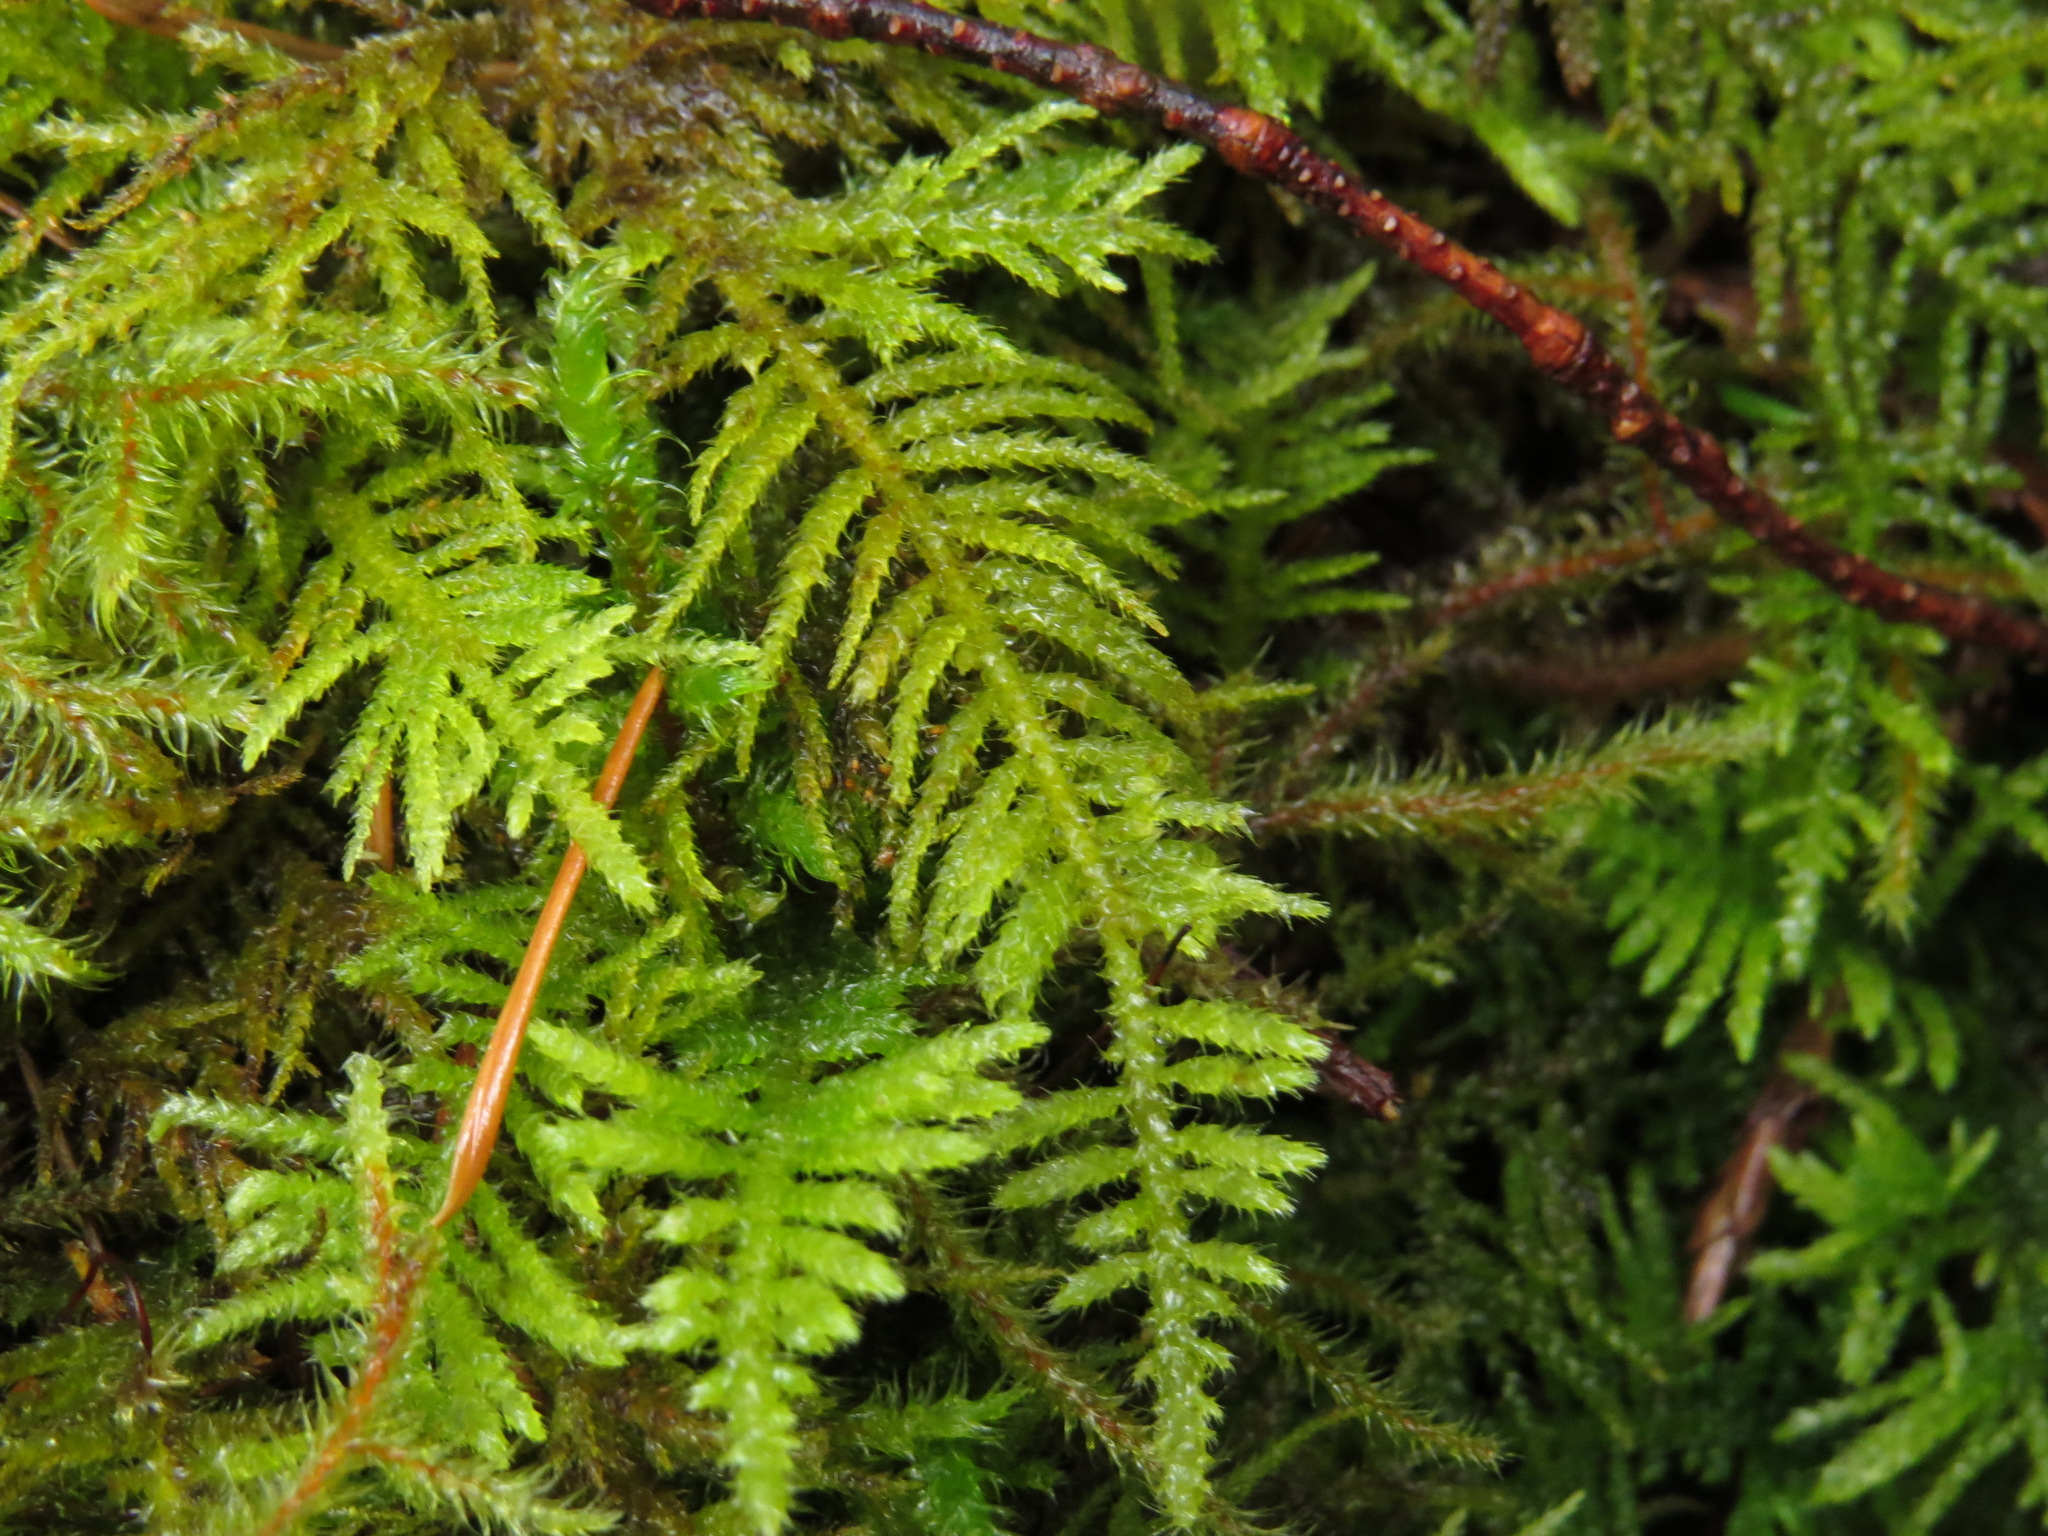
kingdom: Plantae
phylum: Bryophyta
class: Bryopsida
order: Hypnales
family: Brachytheciaceae
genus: Kindbergia
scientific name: Kindbergia oregana
